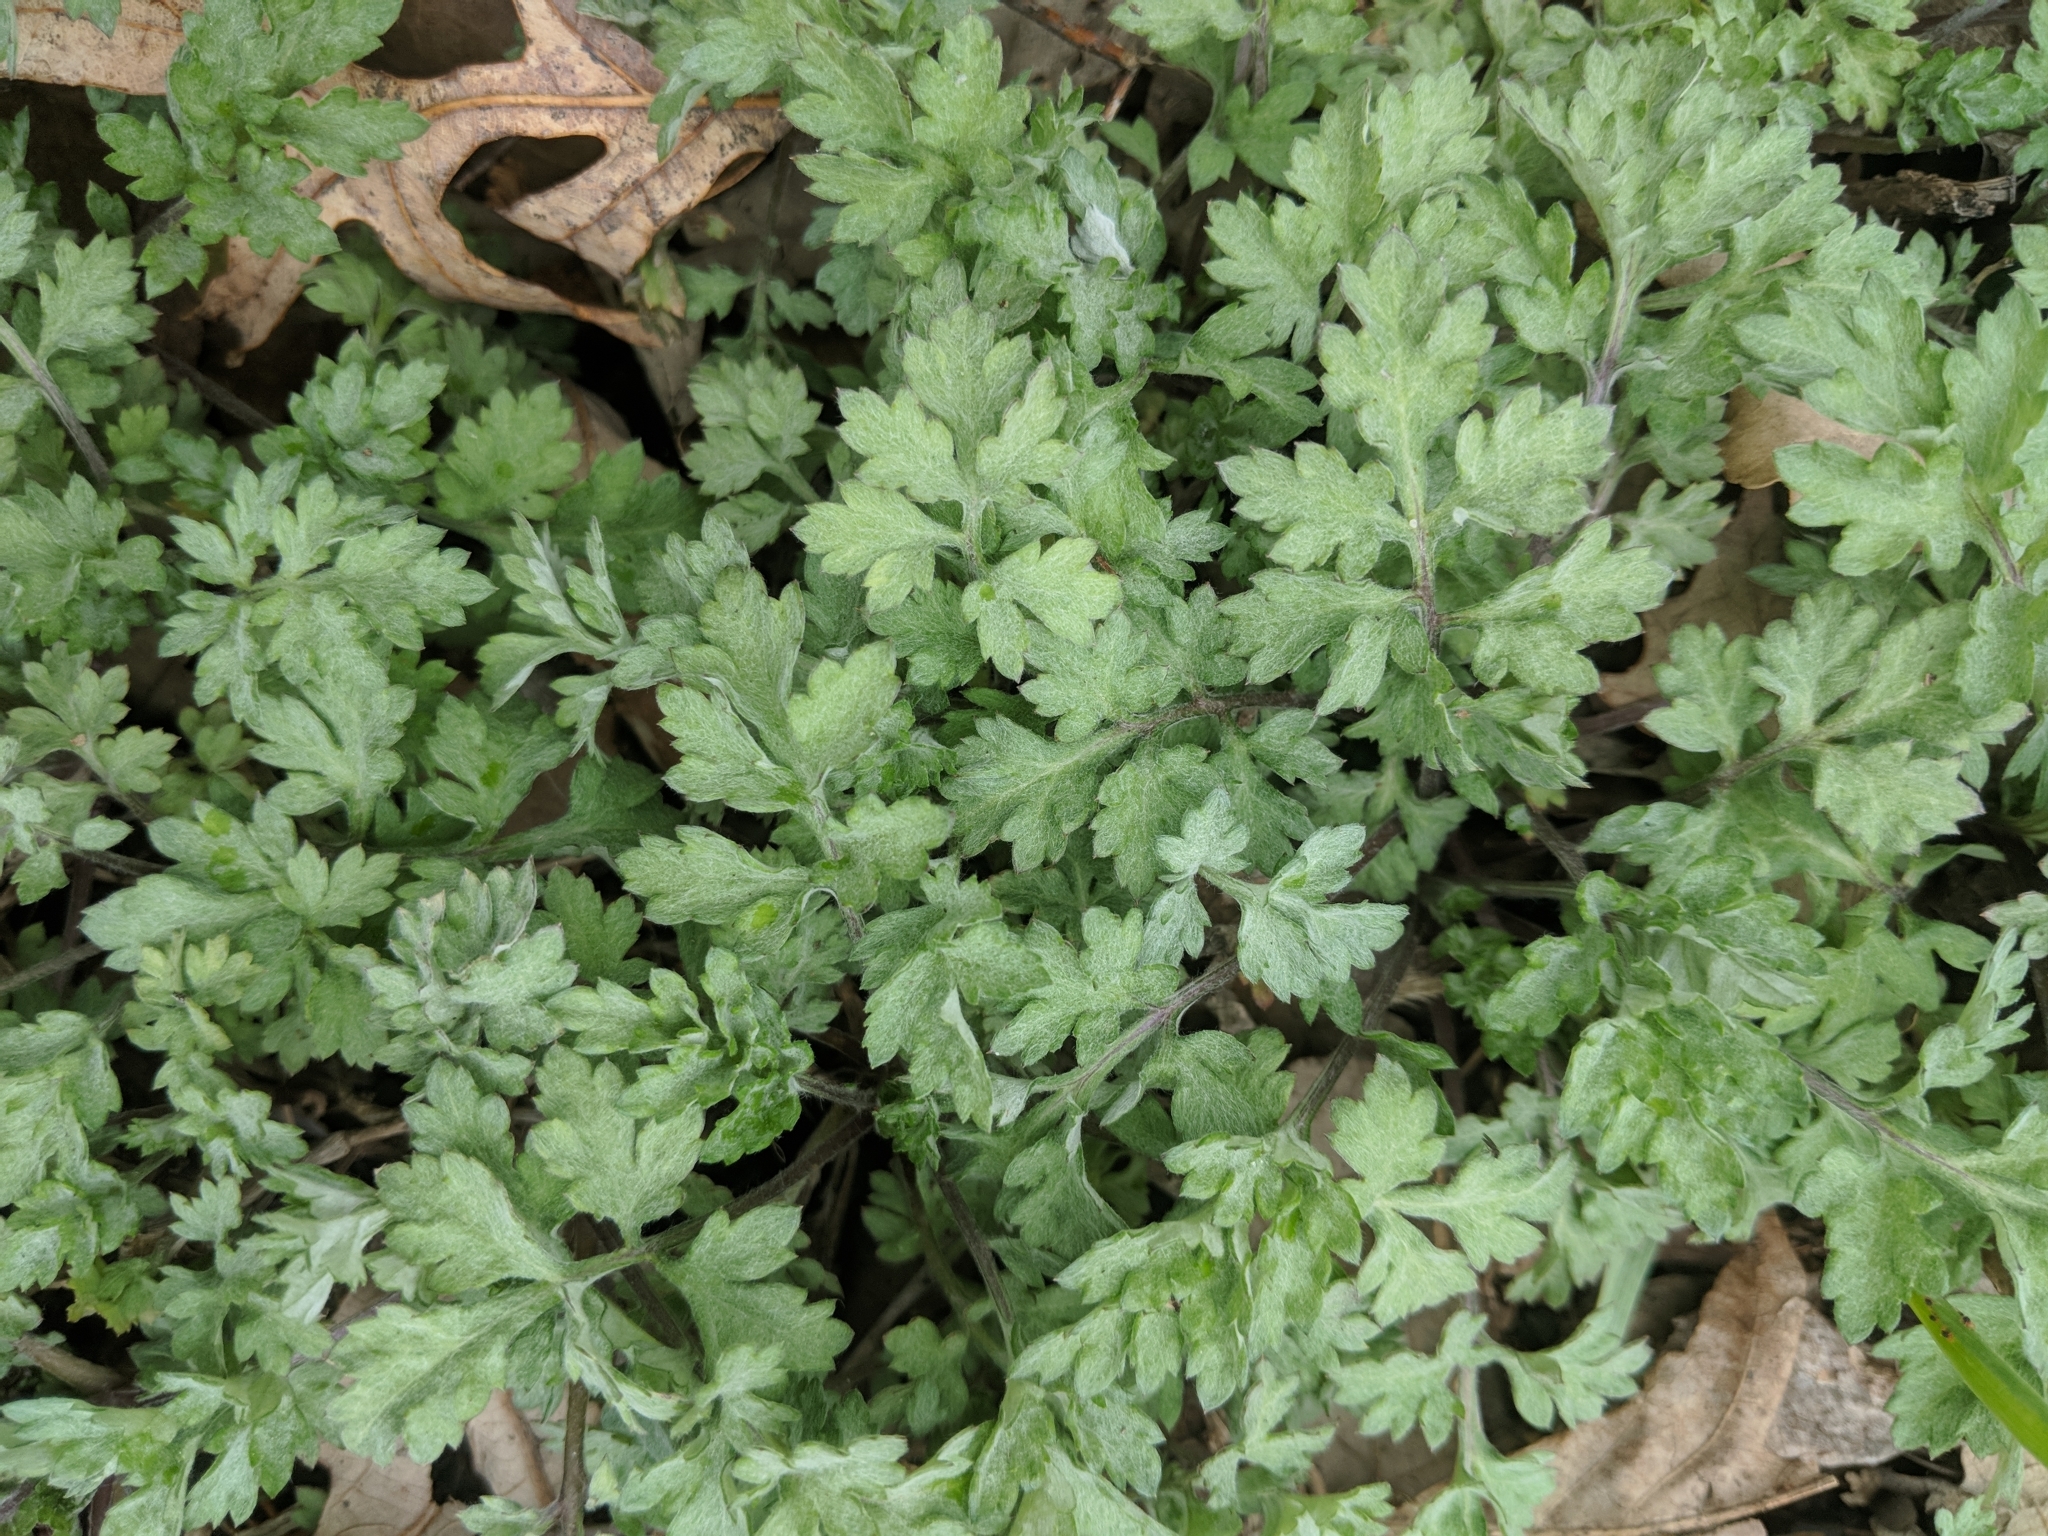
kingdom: Plantae
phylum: Tracheophyta
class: Magnoliopsida
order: Asterales
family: Asteraceae
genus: Artemisia
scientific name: Artemisia vulgaris
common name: Mugwort
